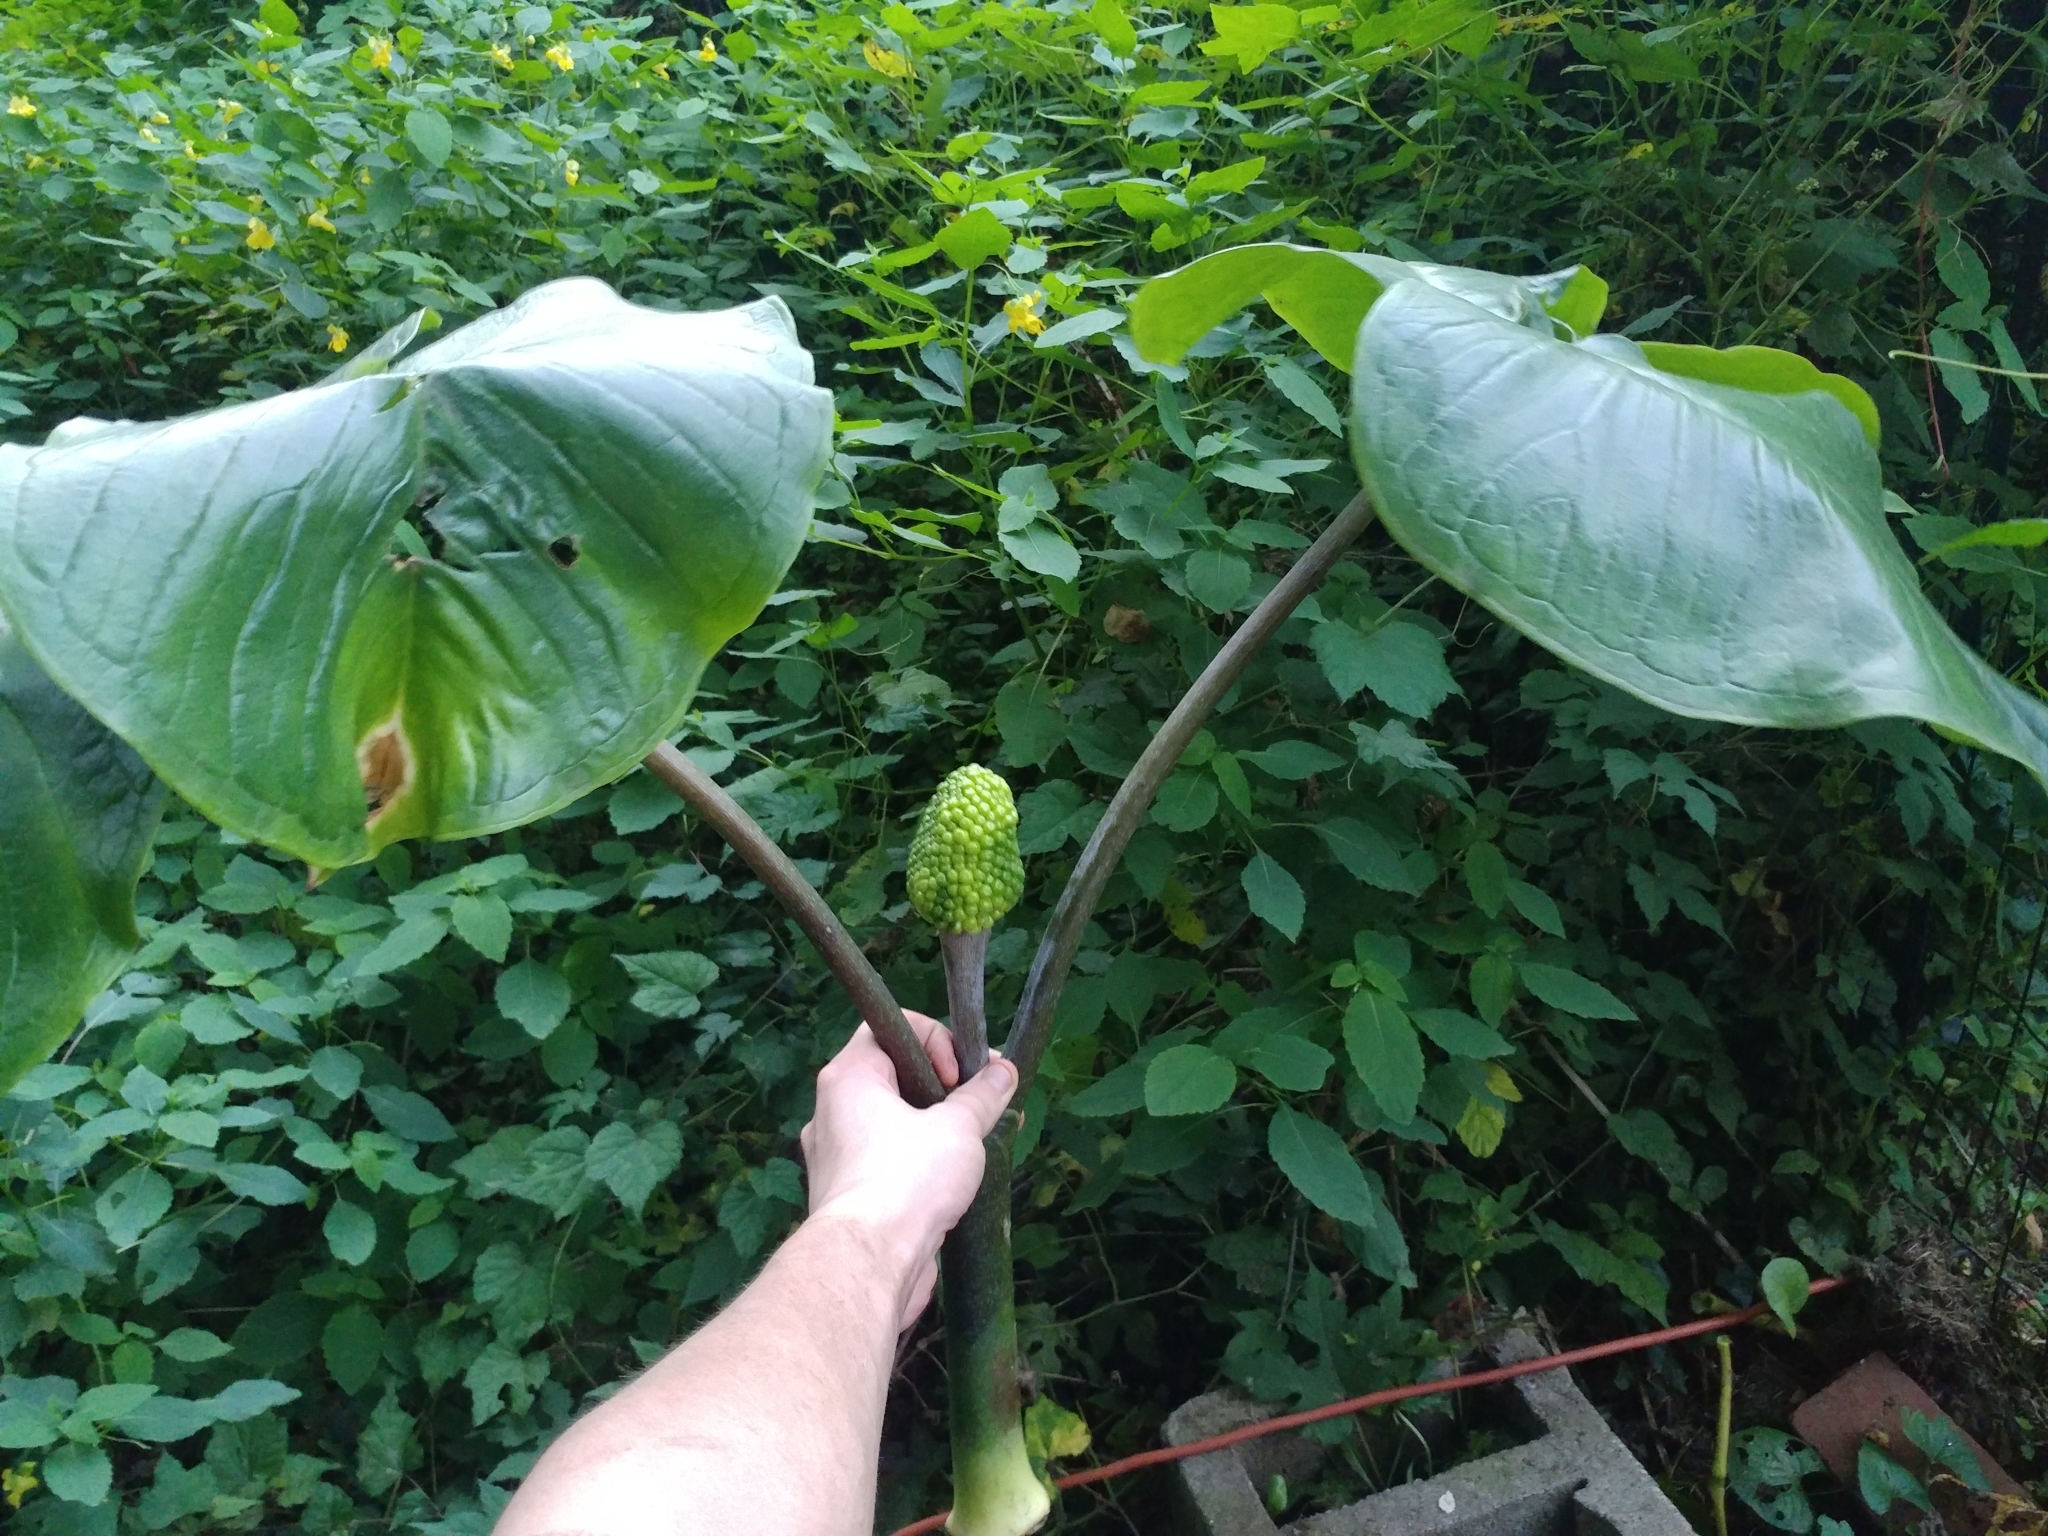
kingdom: Plantae
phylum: Tracheophyta
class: Liliopsida
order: Alismatales
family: Araceae
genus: Arisaema
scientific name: Arisaema triphyllum
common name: Jack-in-the-pulpit
